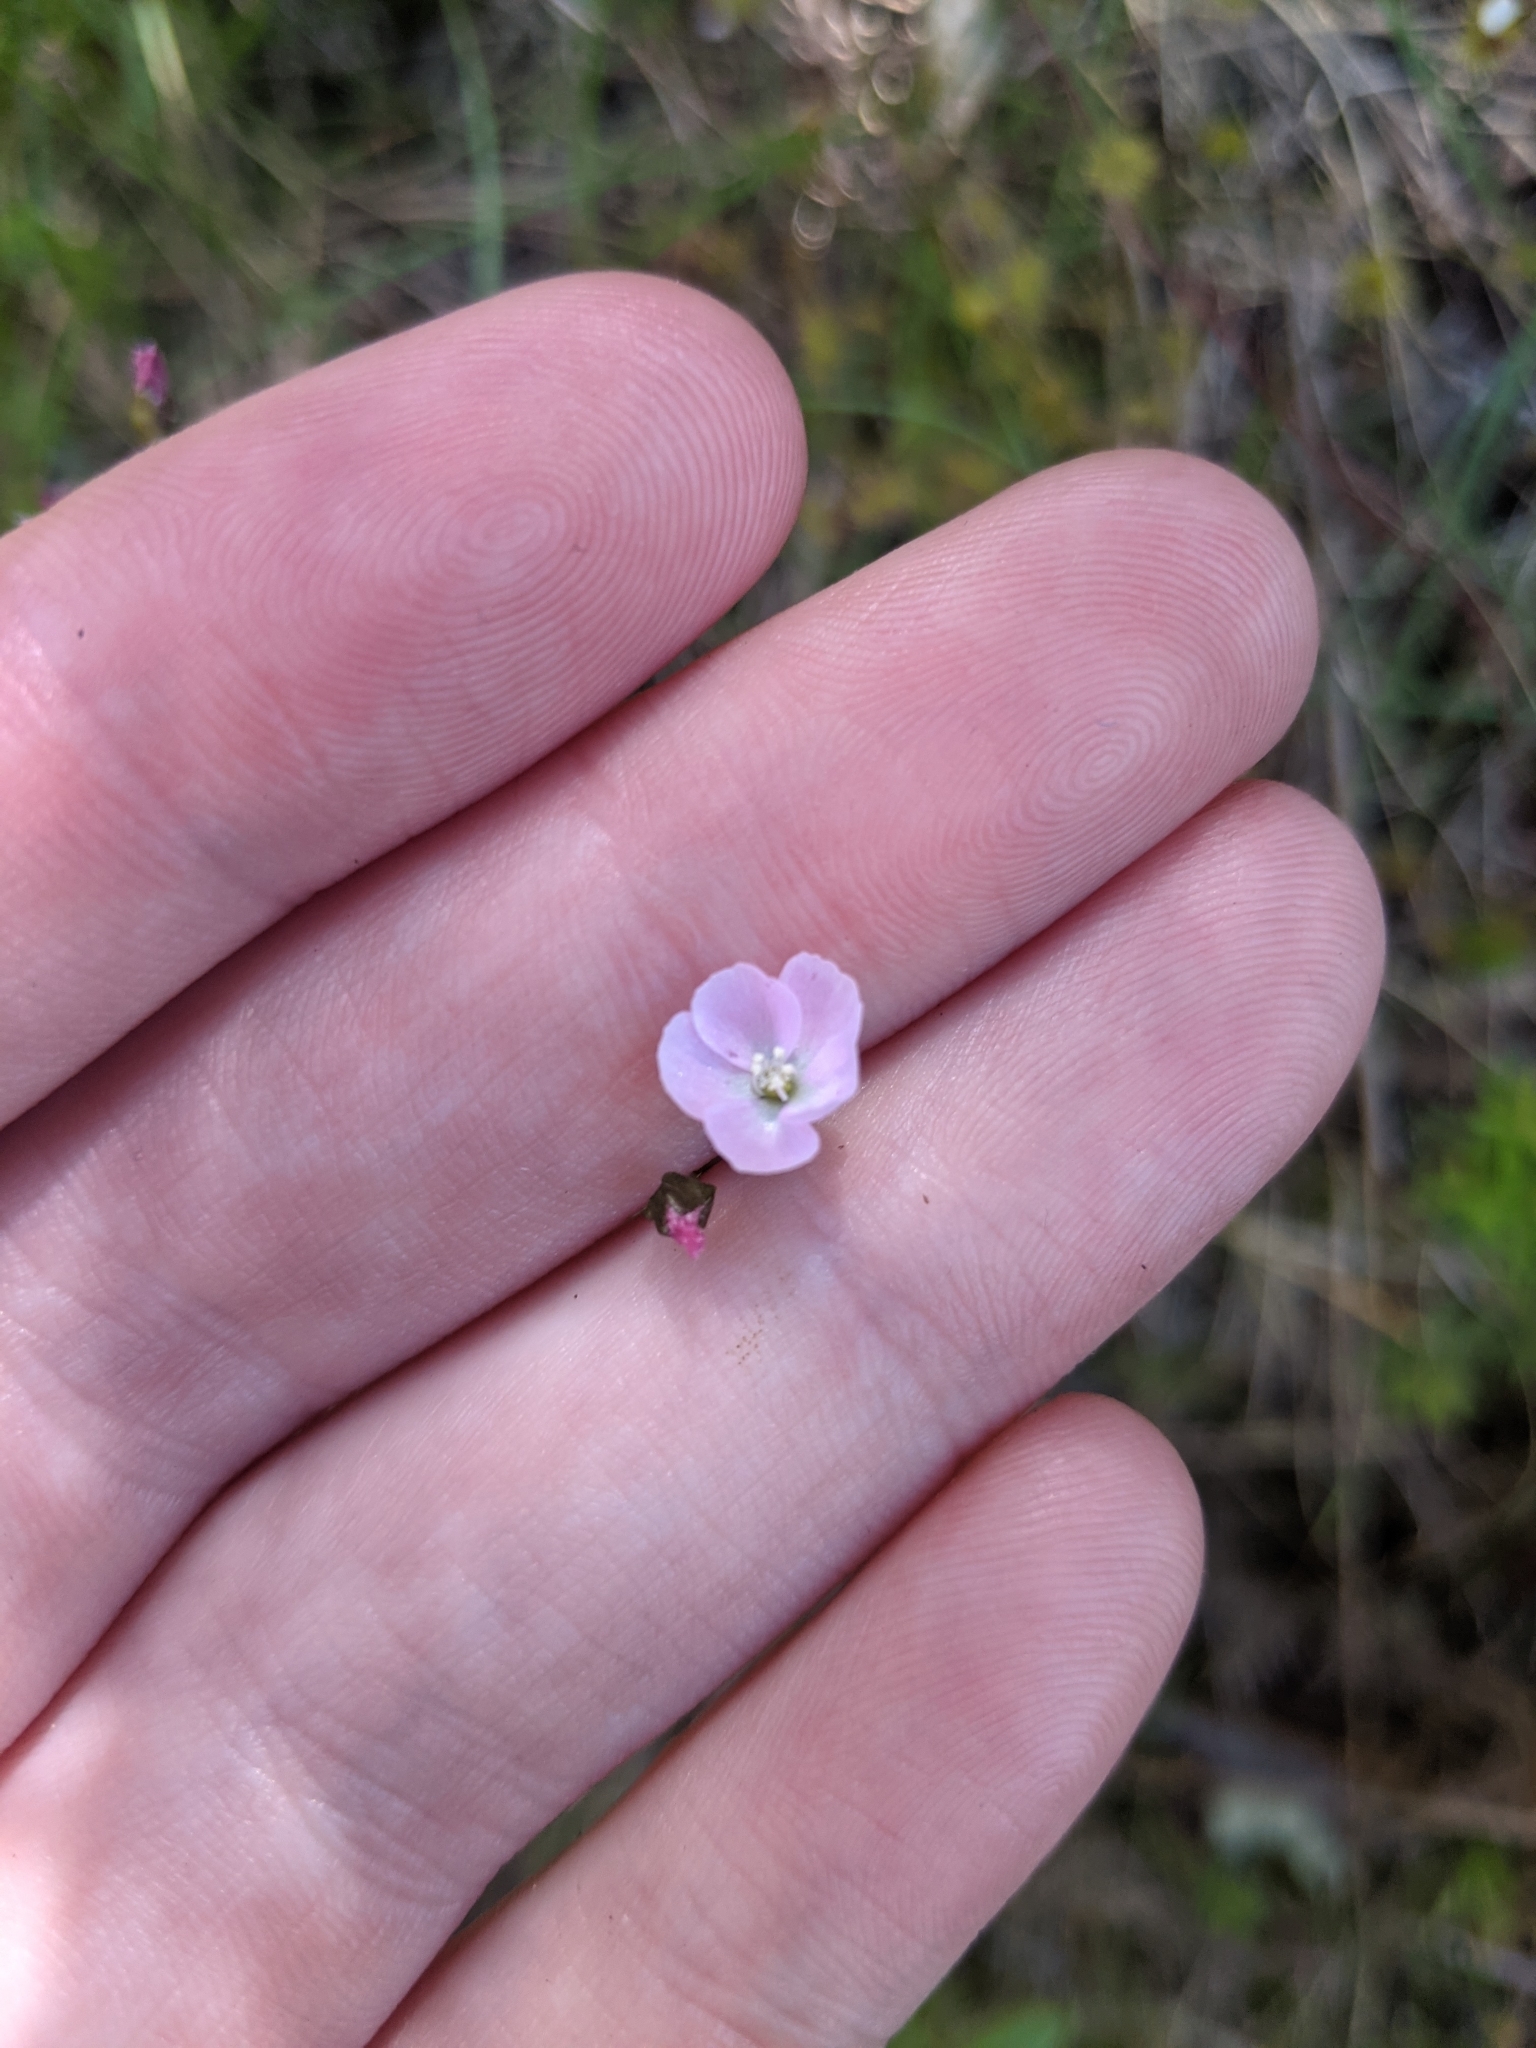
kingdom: Plantae
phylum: Tracheophyta
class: Magnoliopsida
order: Caryophyllales
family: Droseraceae
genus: Drosera
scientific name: Drosera peltata
